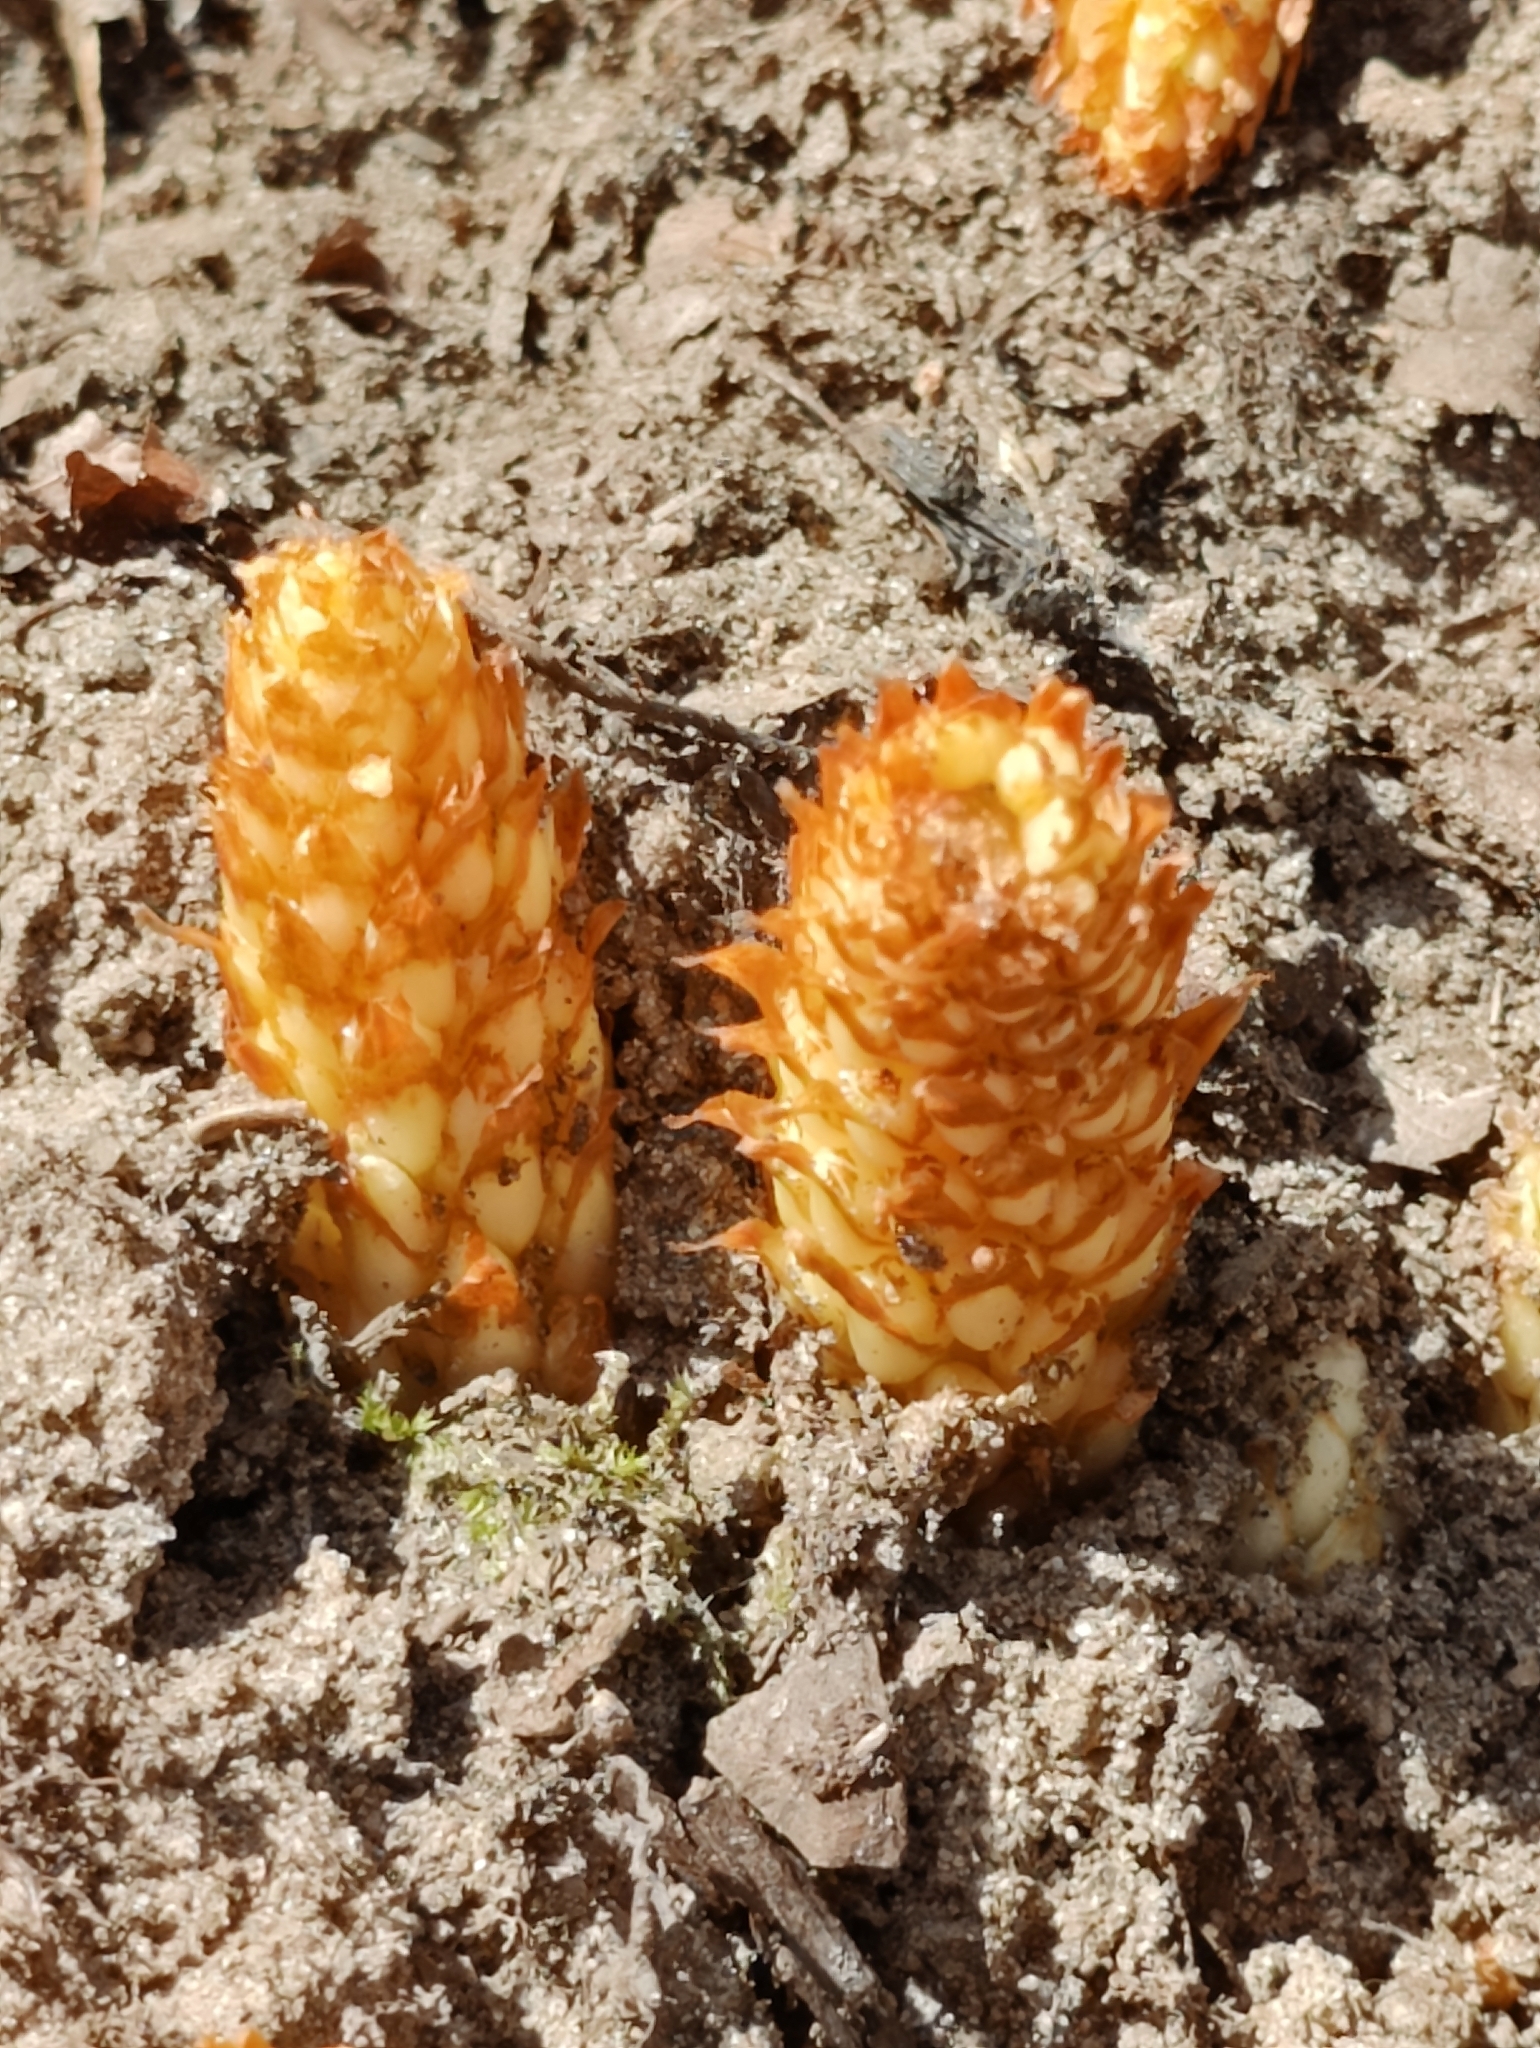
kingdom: Plantae
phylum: Tracheophyta
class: Magnoliopsida
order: Lamiales
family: Orobanchaceae
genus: Conopholis
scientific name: Conopholis americana
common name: American cancer-root
